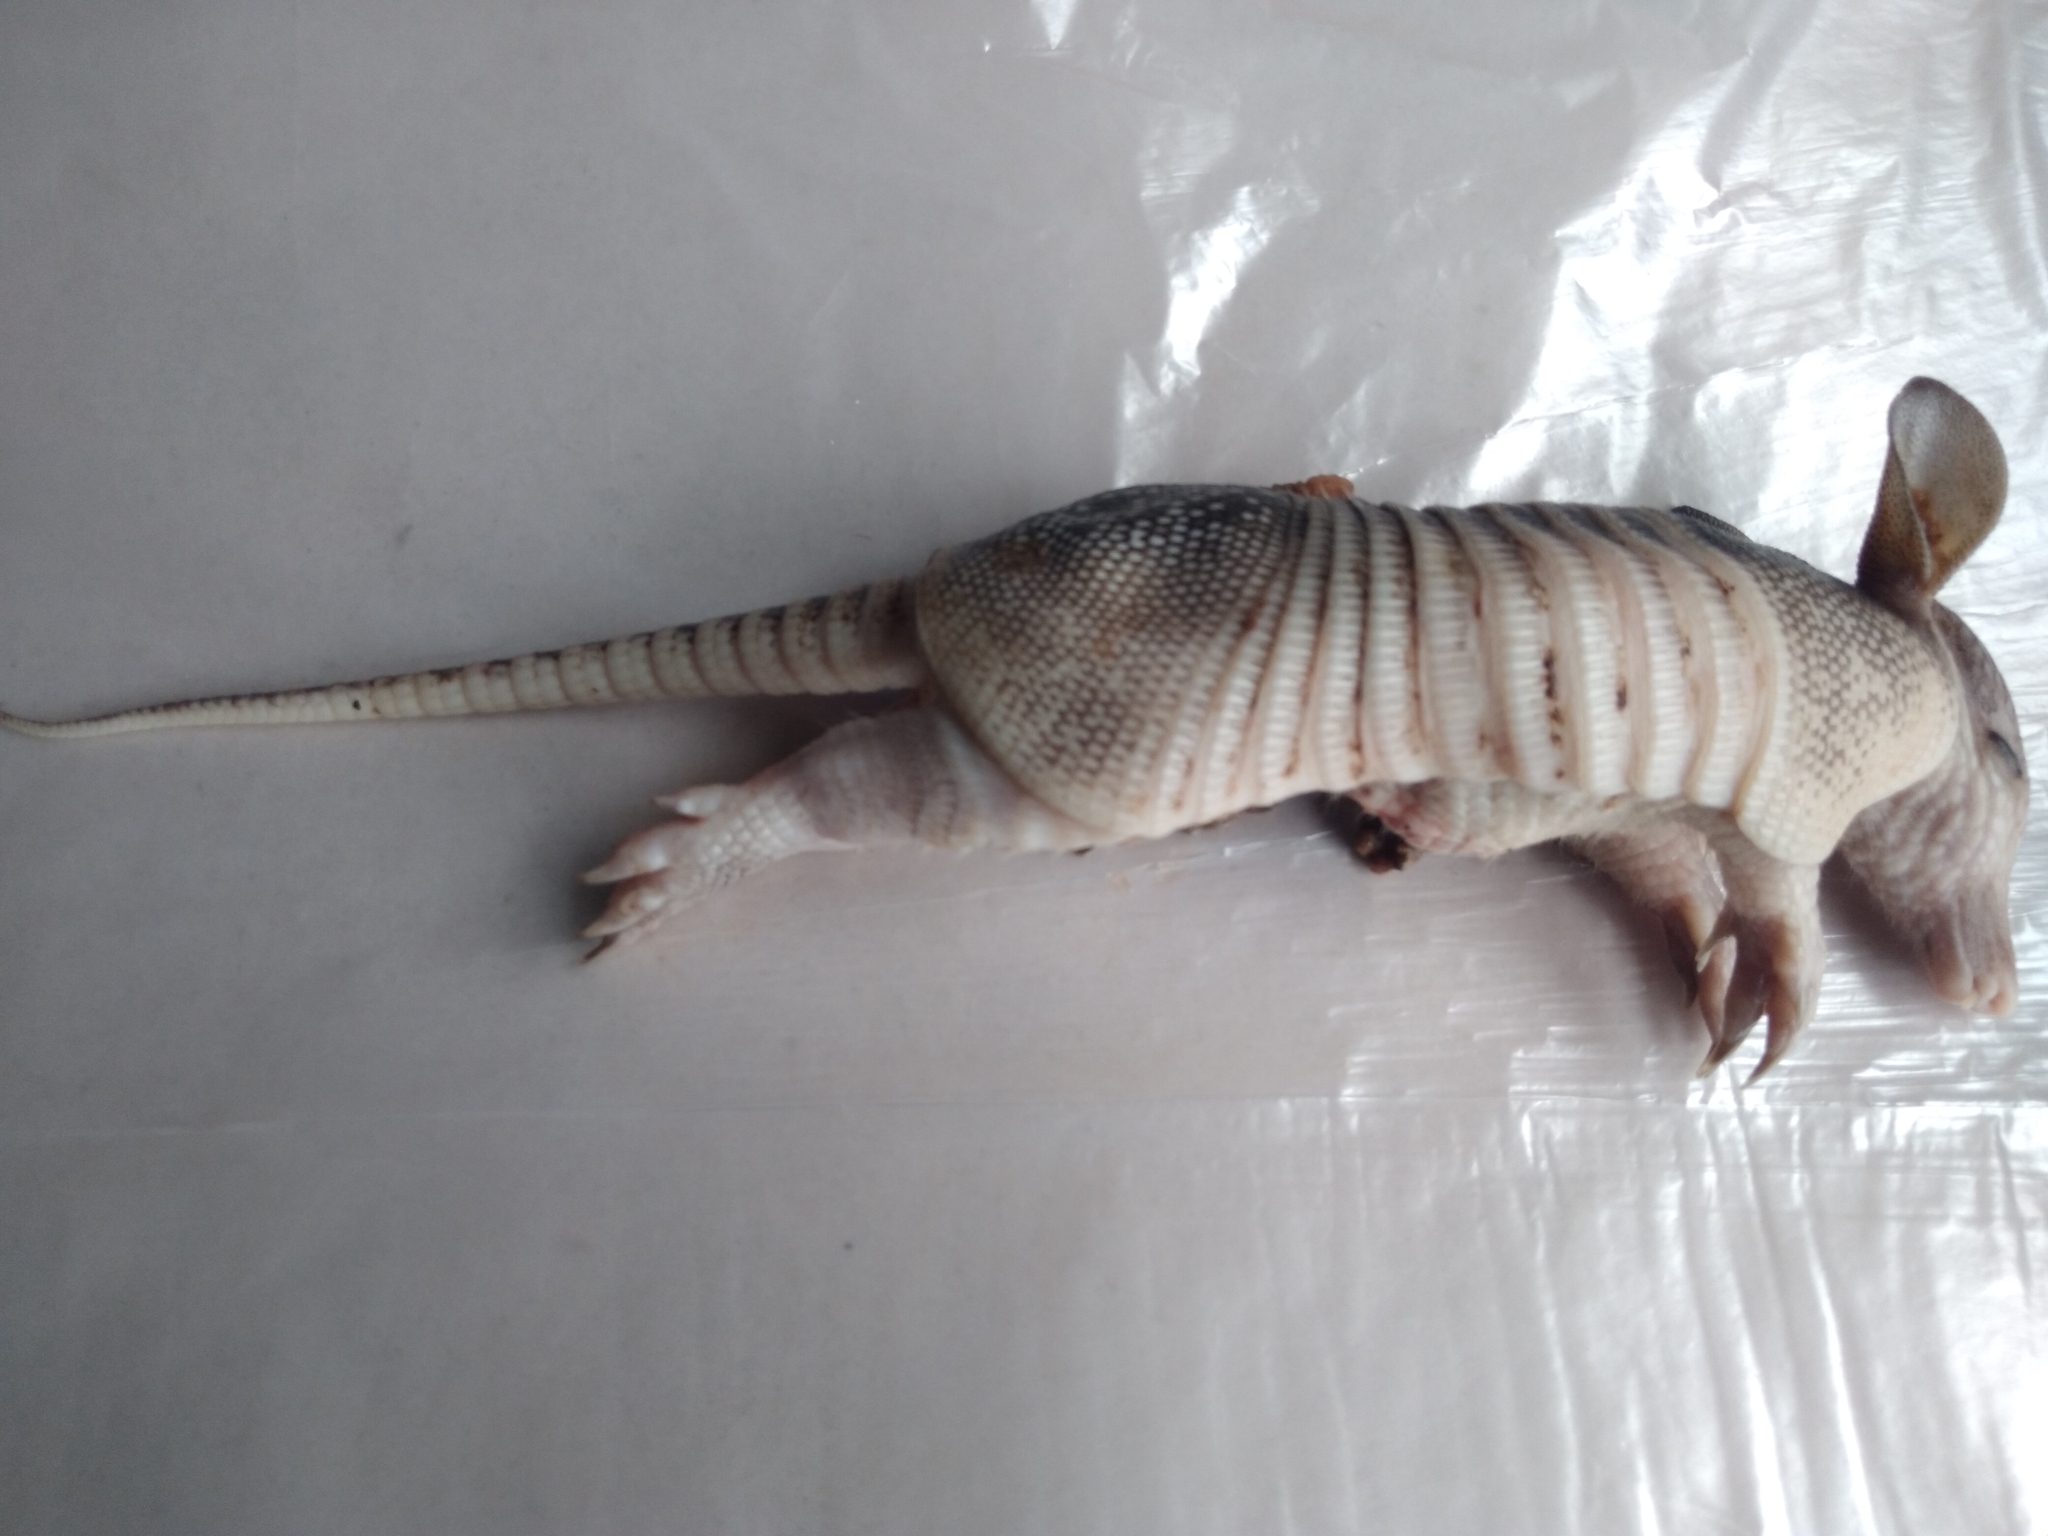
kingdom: Animalia
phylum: Chordata
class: Mammalia
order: Cingulata
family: Dasypodidae
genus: Dasypus
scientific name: Dasypus novemcinctus
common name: Nine-banded armadillo
